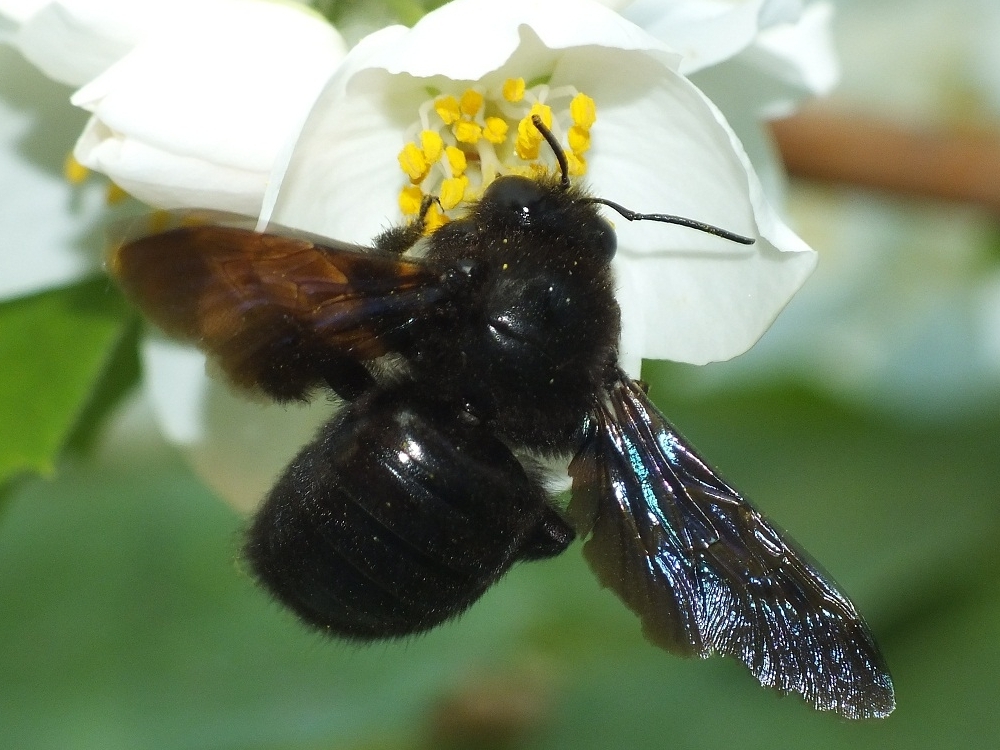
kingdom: Animalia
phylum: Arthropoda
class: Insecta
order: Hymenoptera
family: Apidae
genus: Xylocopa
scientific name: Xylocopa valga
